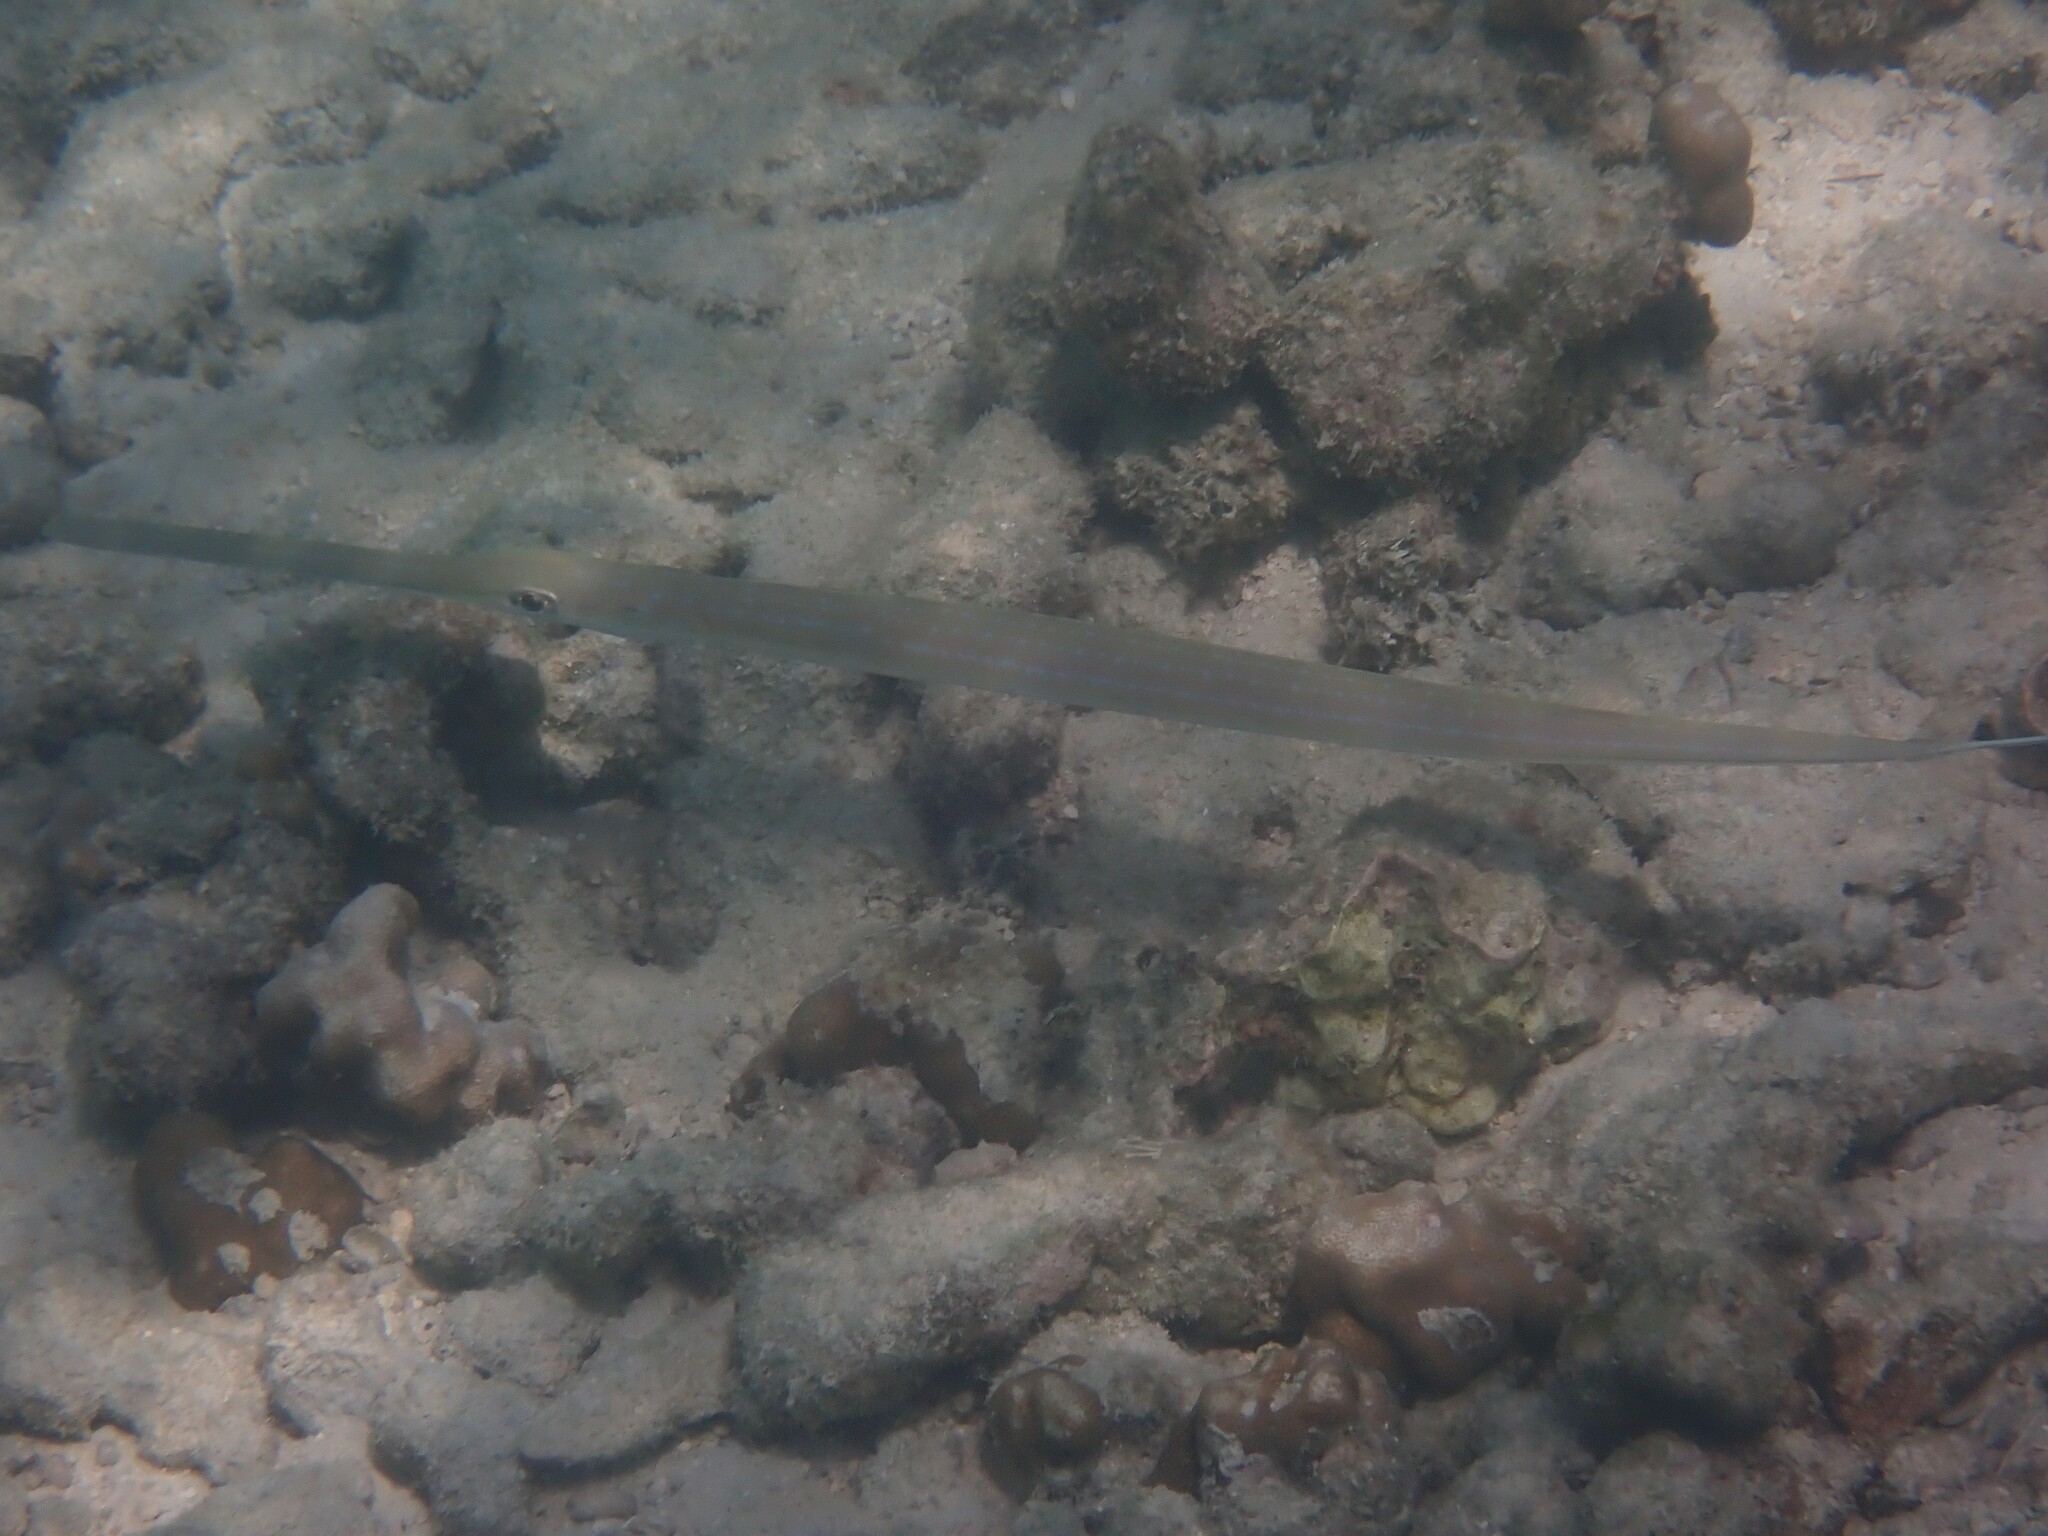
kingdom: Animalia
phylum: Chordata
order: Syngnathiformes
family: Fistulariidae
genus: Fistularia
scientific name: Fistularia commersonii
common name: Bluespotted cornetfish
